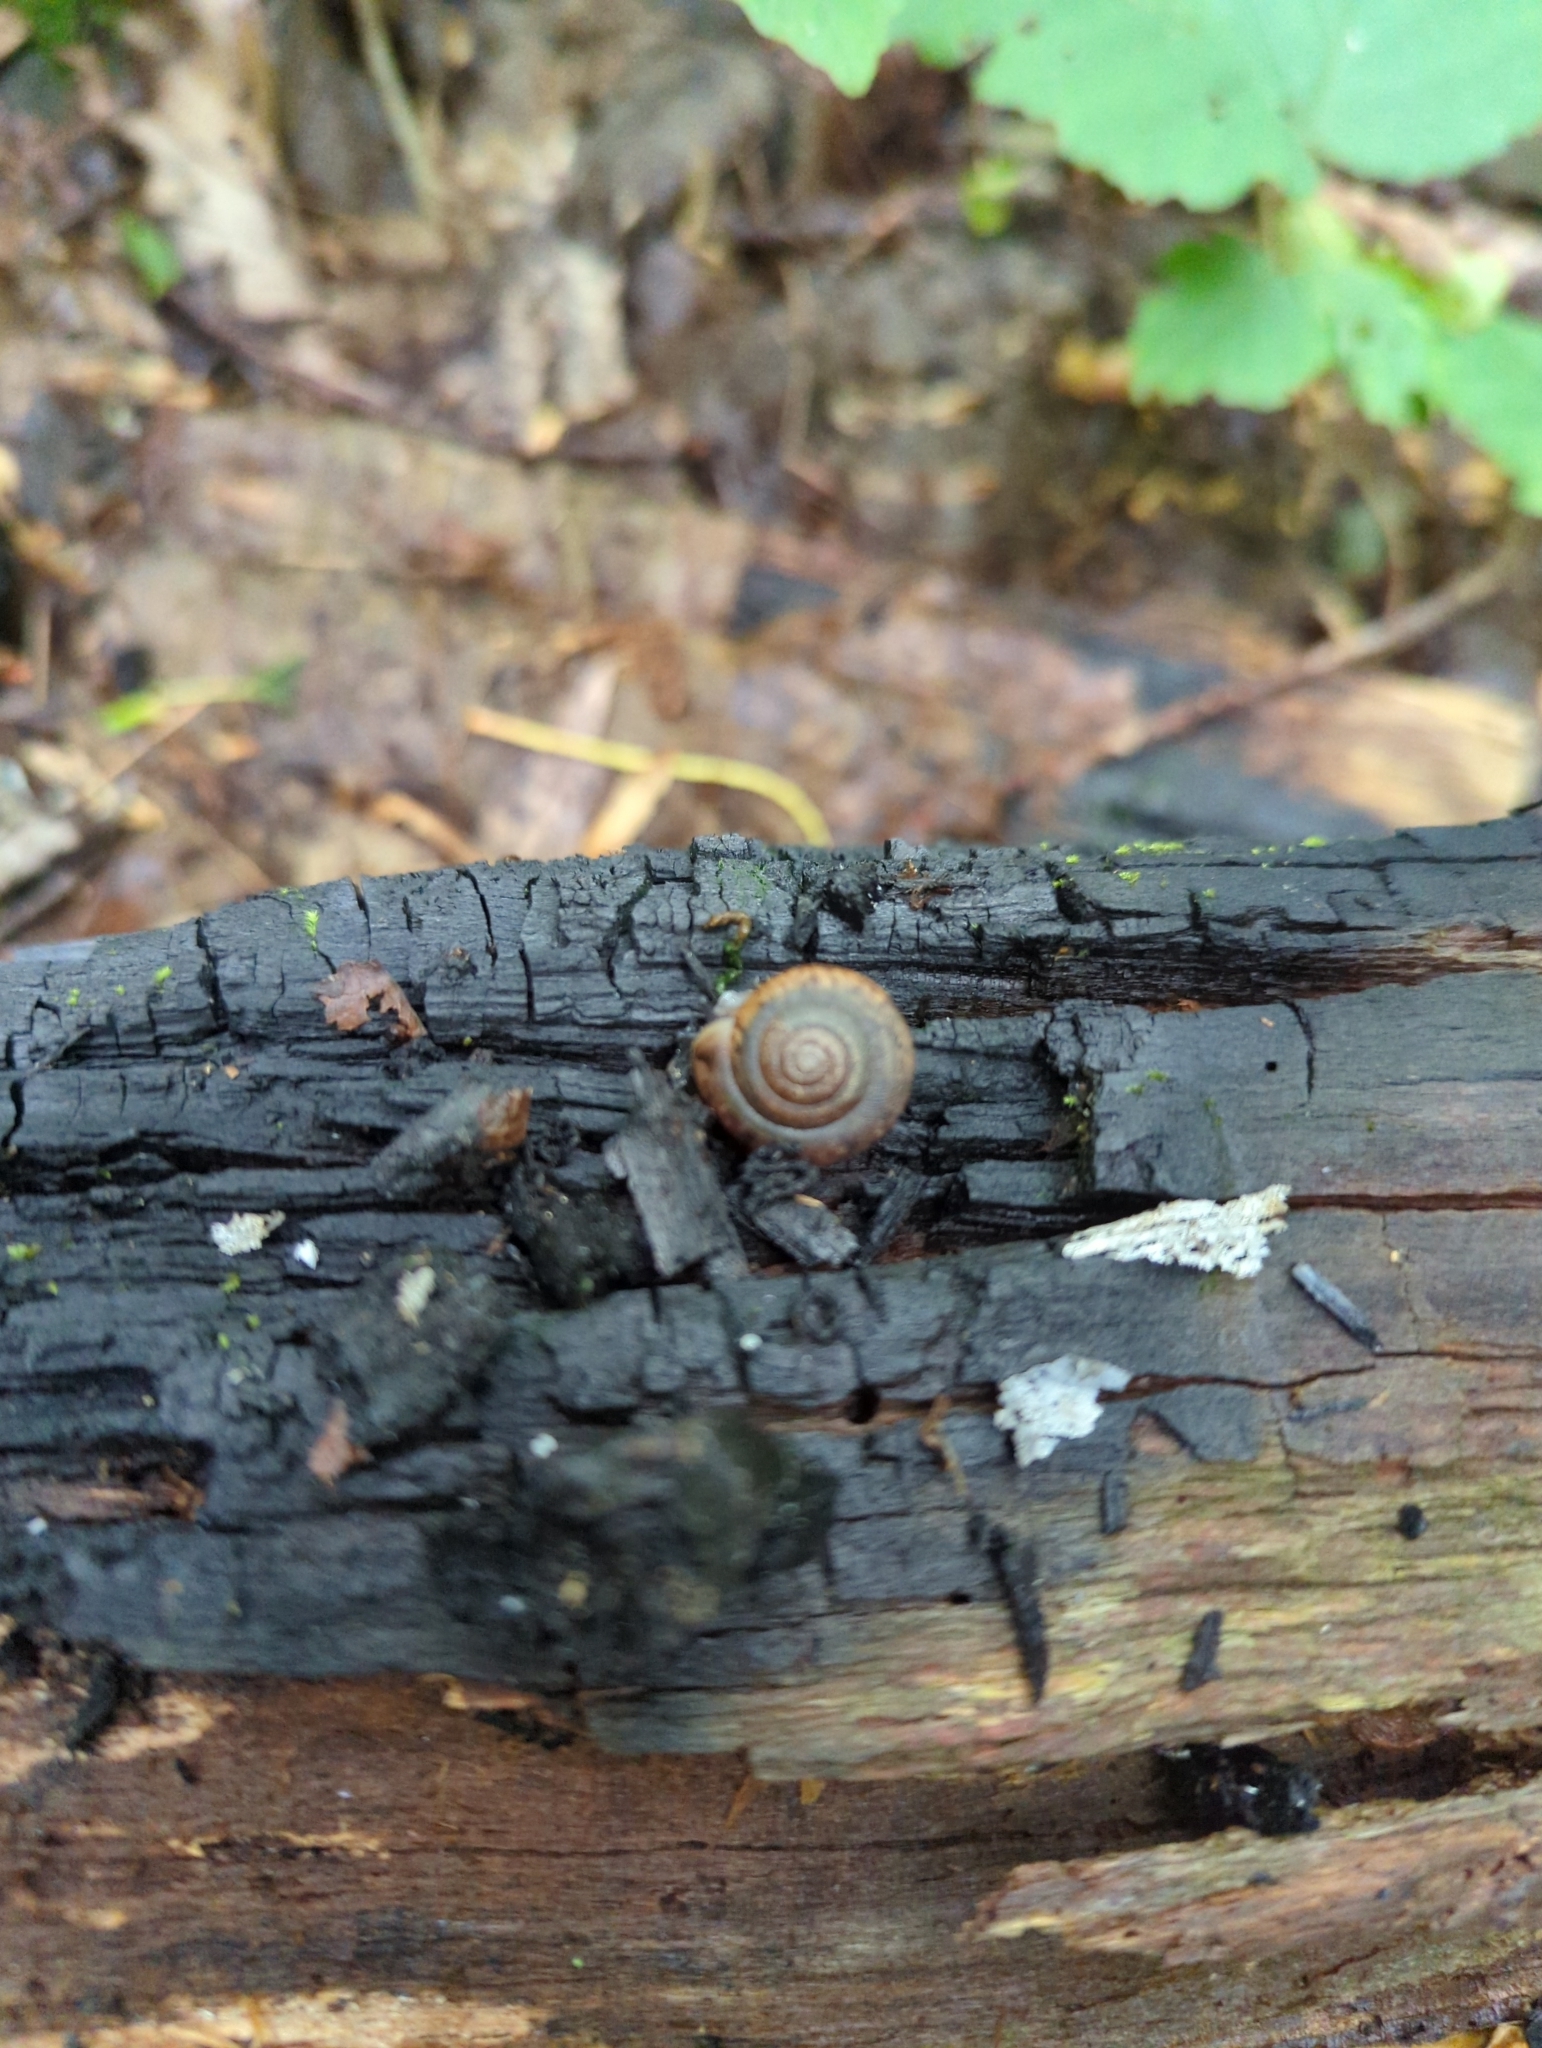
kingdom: Animalia
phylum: Mollusca
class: Gastropoda
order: Stylommatophora
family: Discidae
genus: Discus
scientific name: Discus rotundatus
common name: Rounded snail
